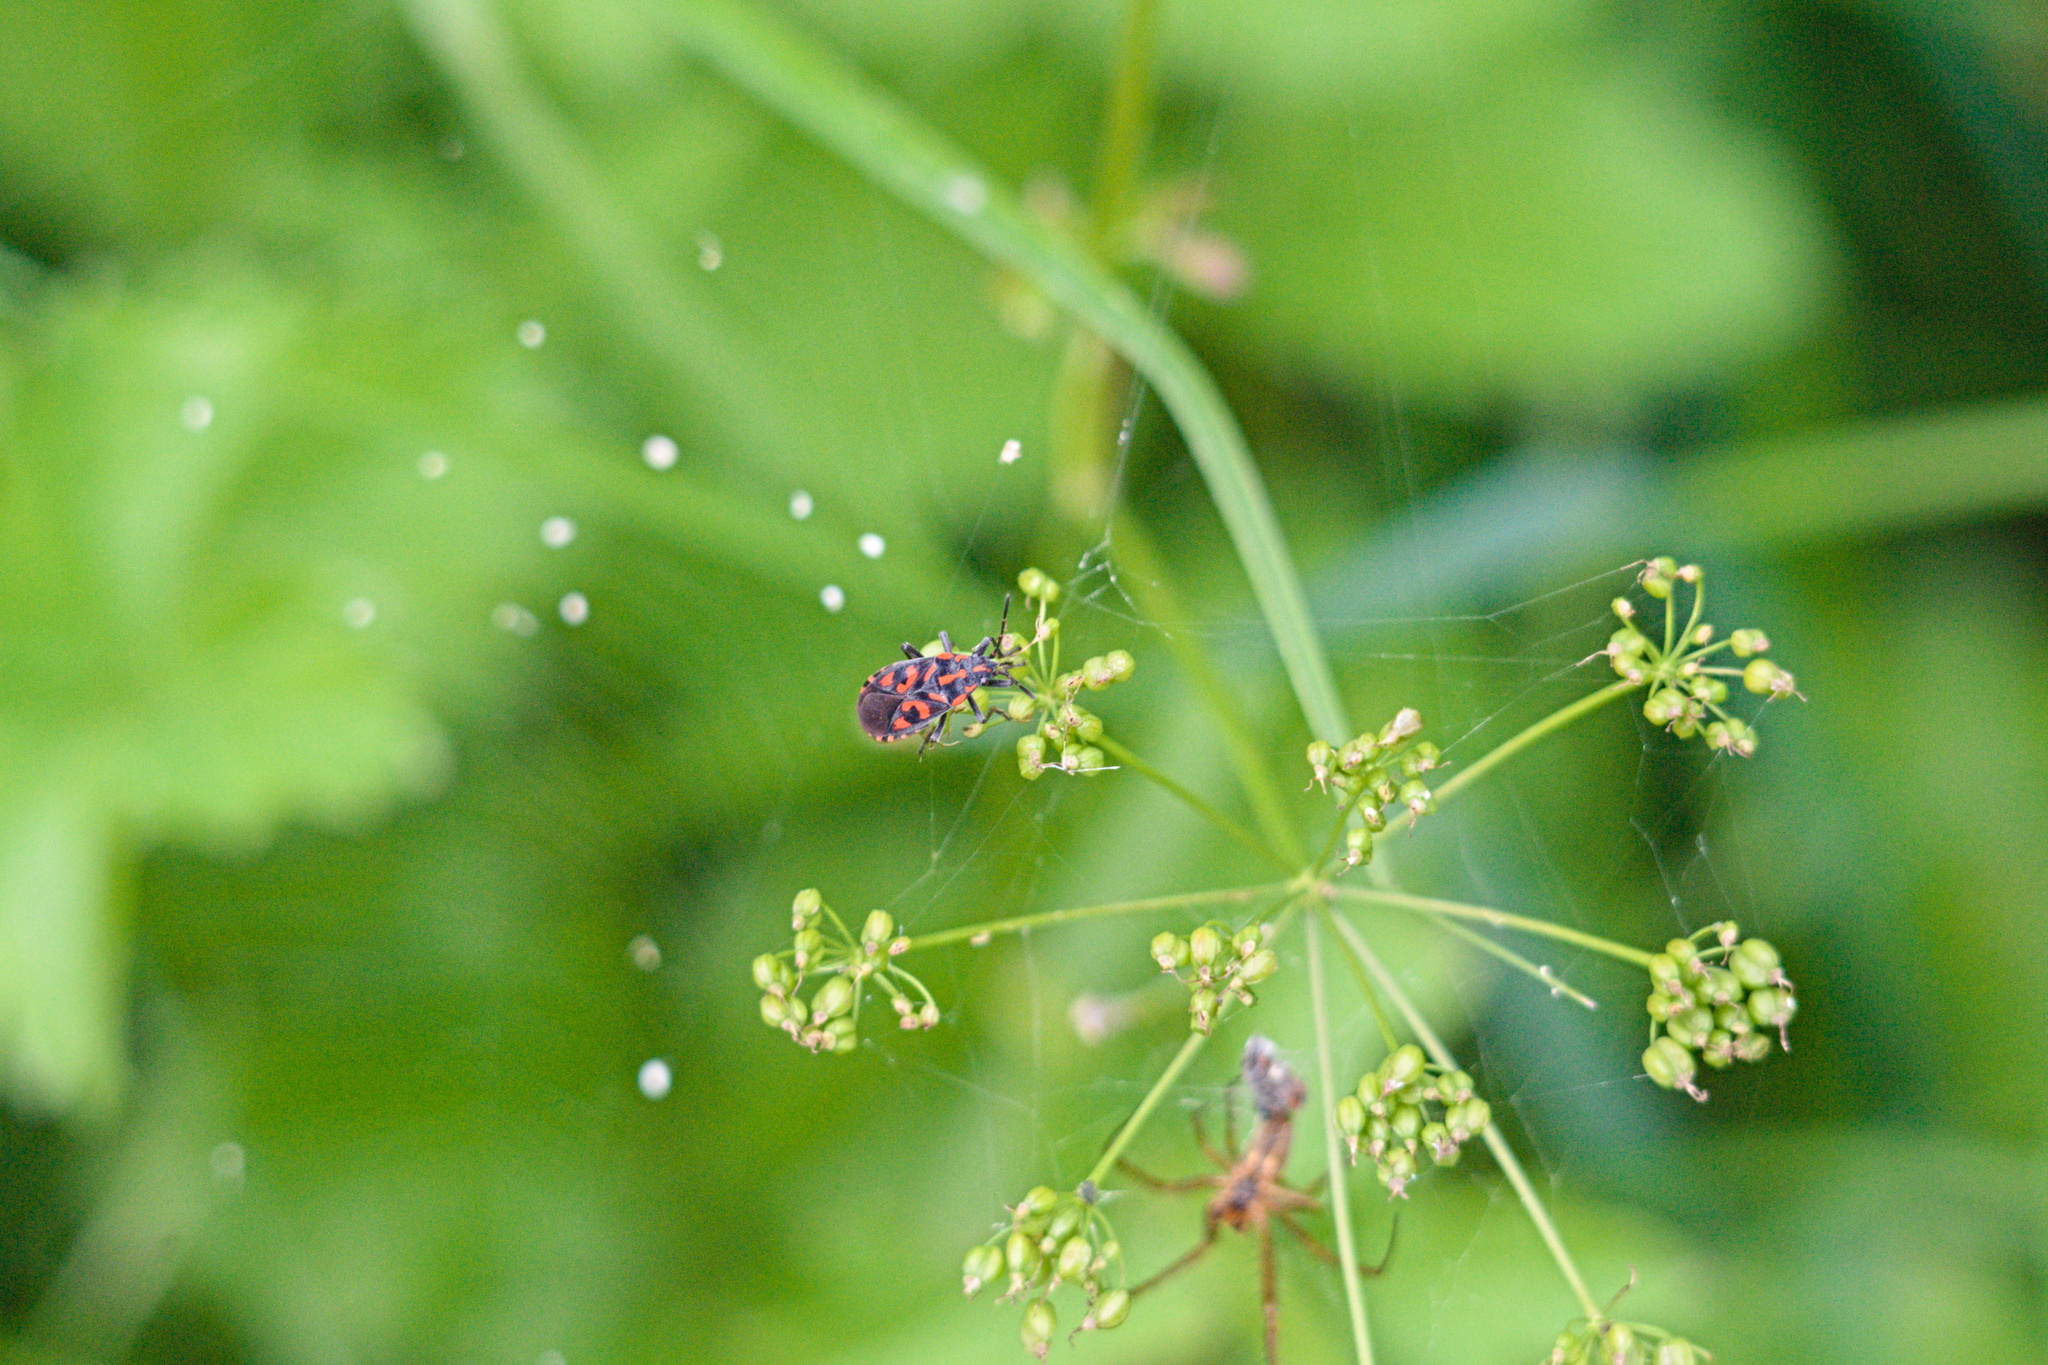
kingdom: Animalia
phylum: Arthropoda
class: Insecta
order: Hemiptera
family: Lygaeidae
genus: Spilostethus
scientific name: Spilostethus saxatilis
